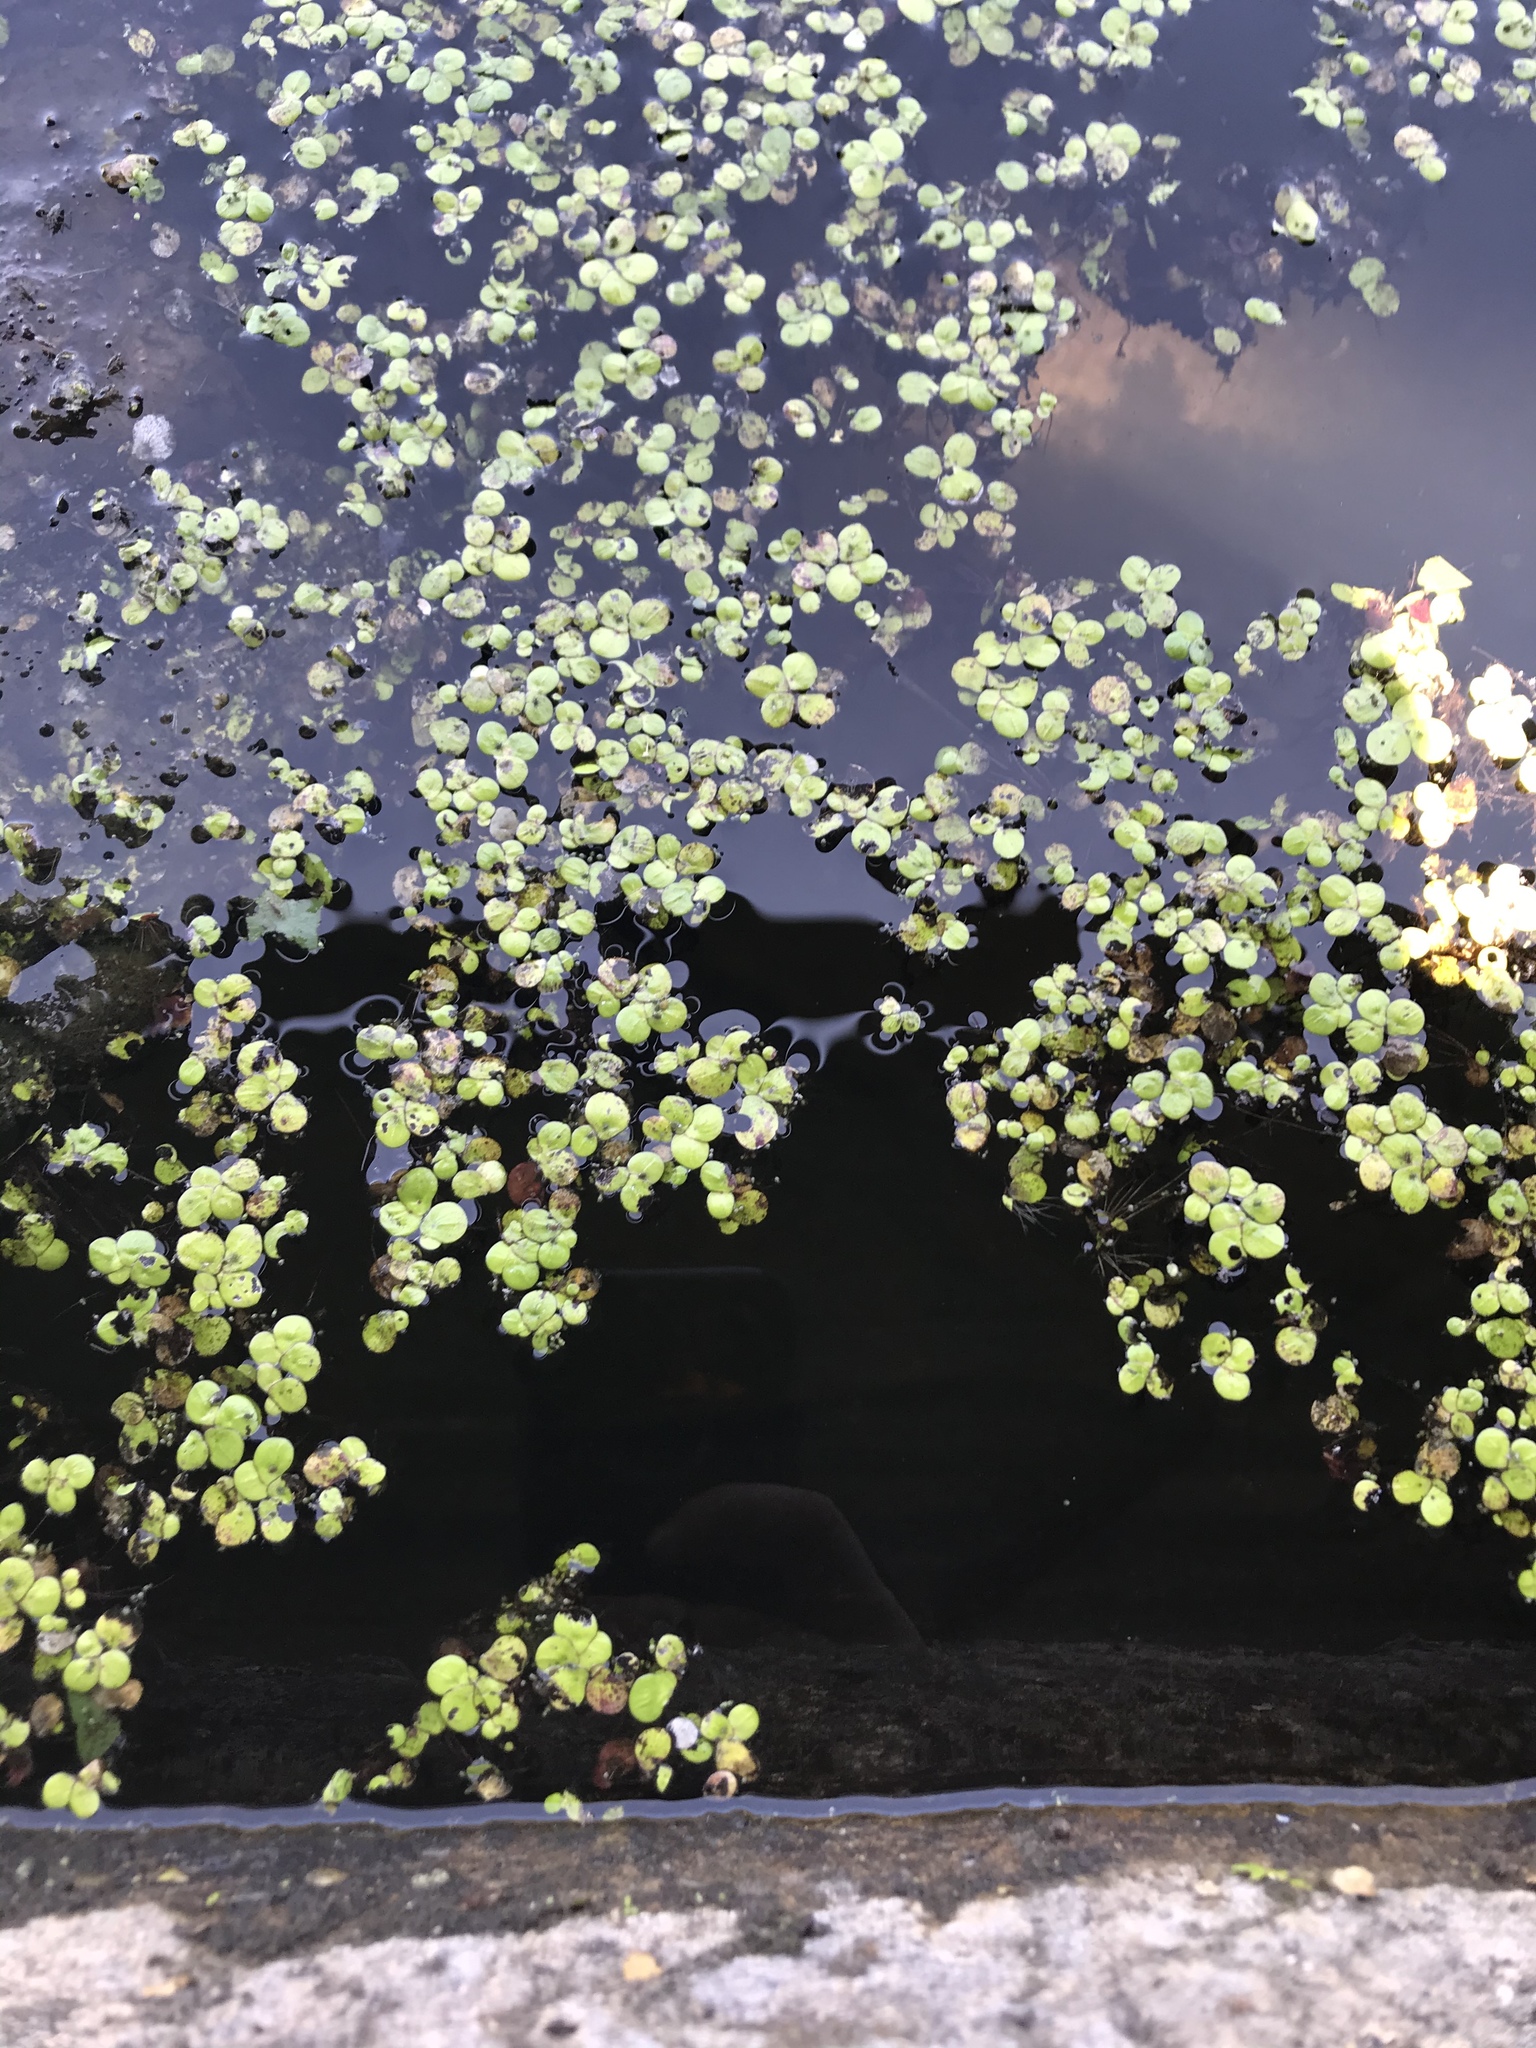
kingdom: Plantae
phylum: Tracheophyta
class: Liliopsida
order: Alismatales
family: Araceae
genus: Spirodela
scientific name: Spirodela polyrhiza
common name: Great duckweed
